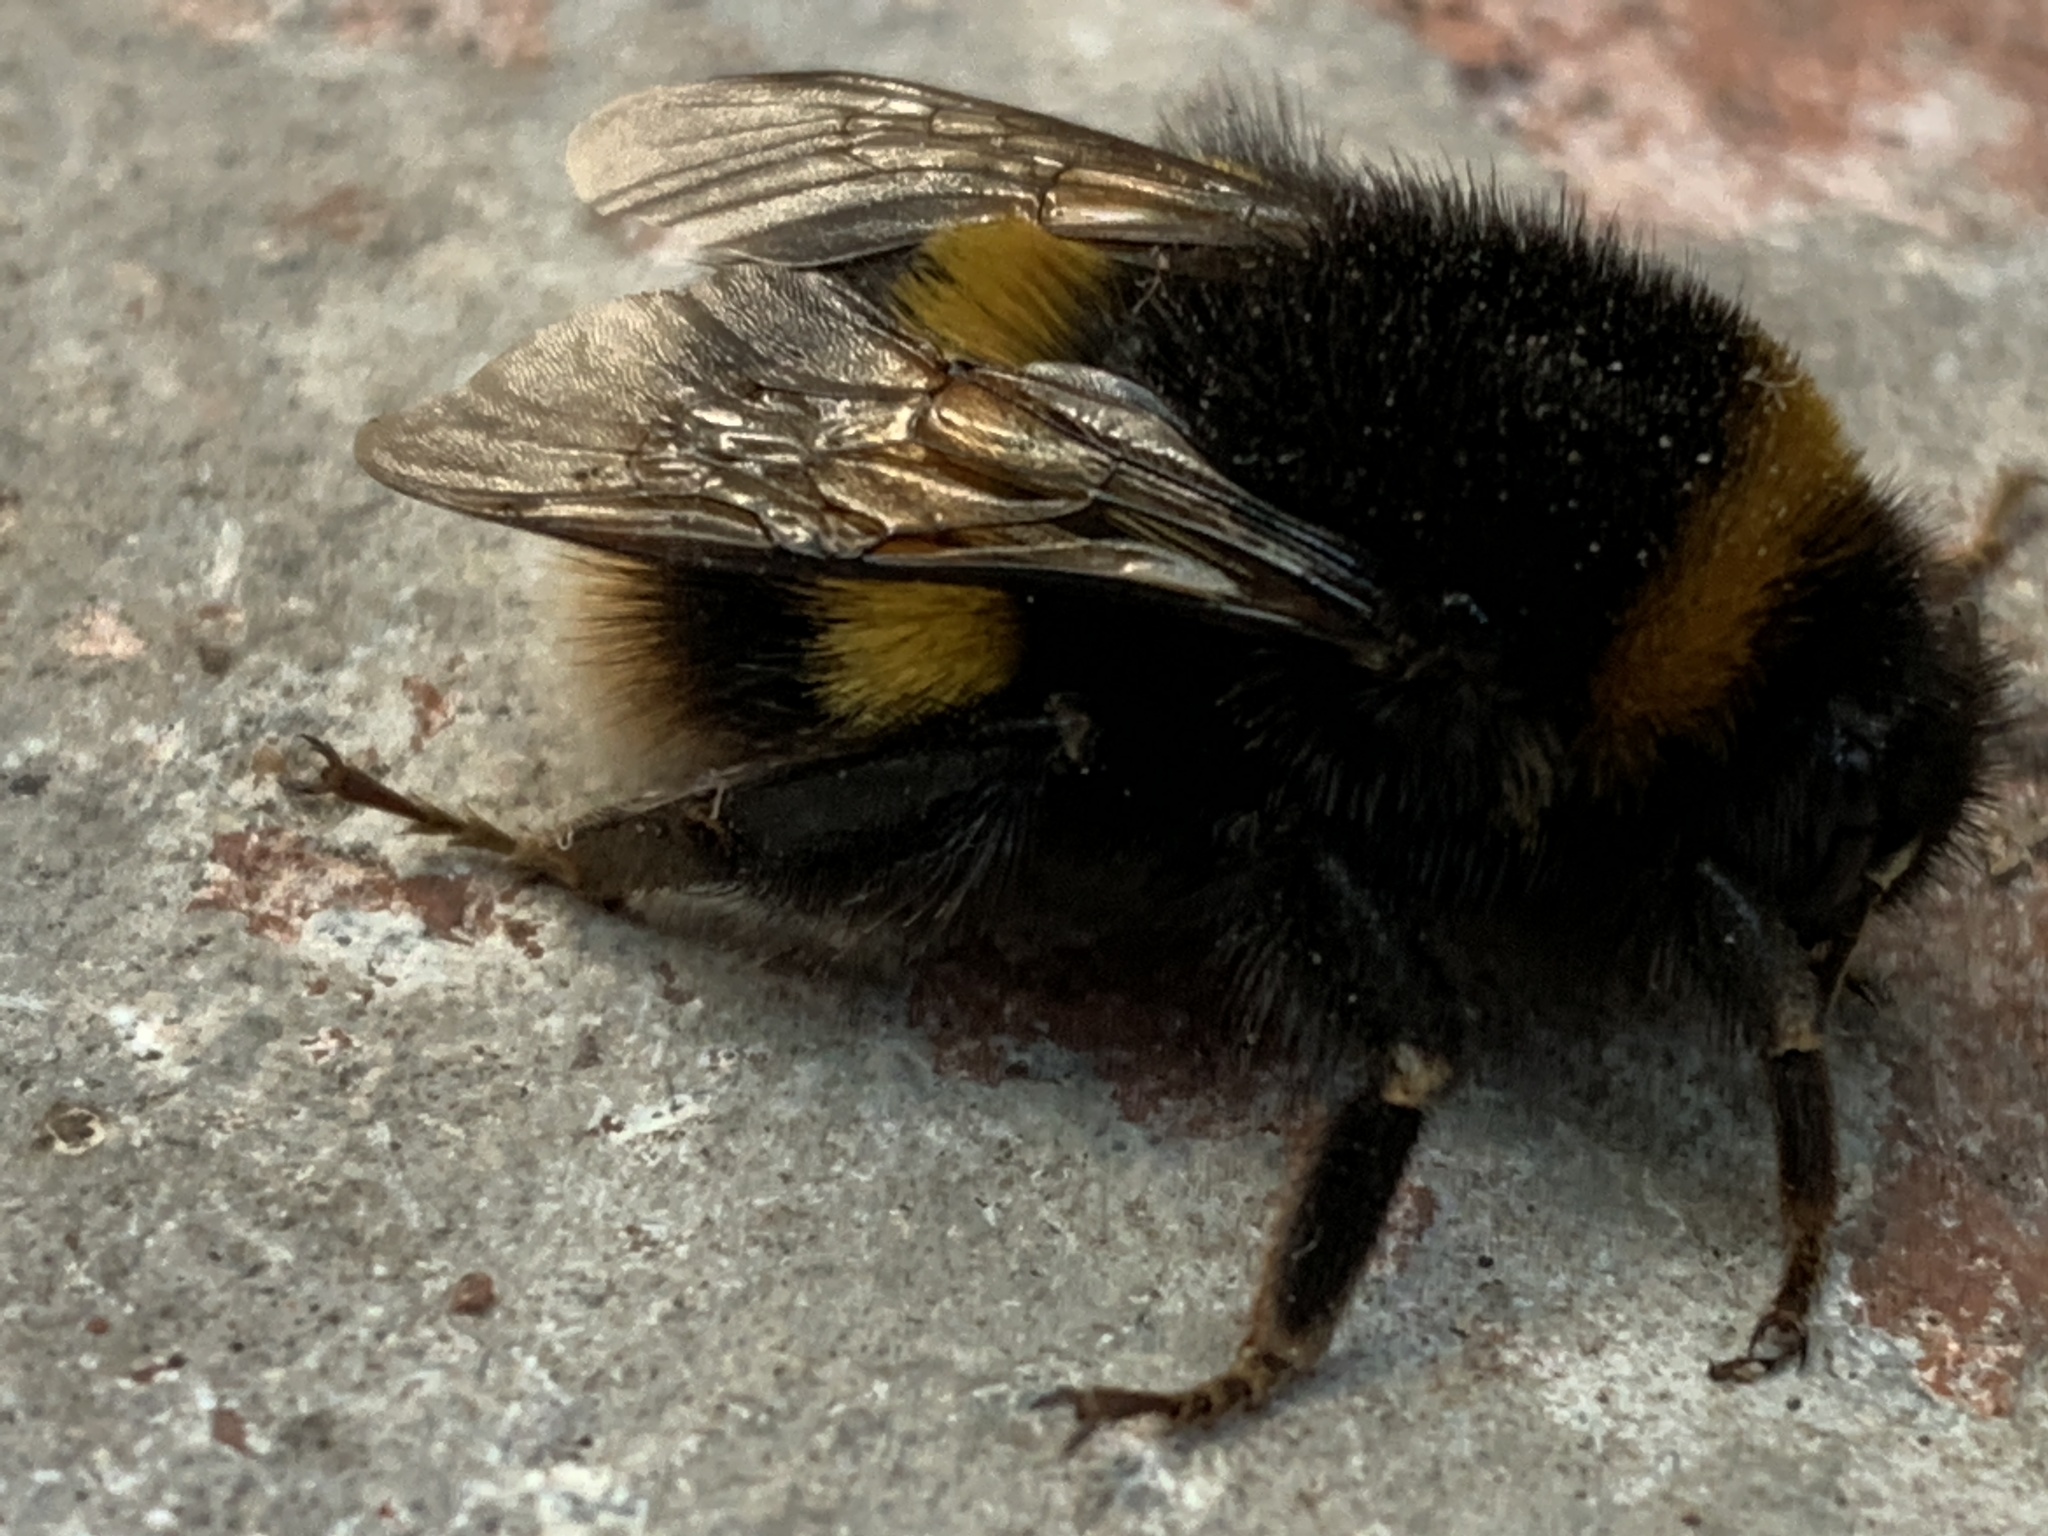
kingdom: Animalia
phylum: Arthropoda
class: Insecta
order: Hymenoptera
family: Apidae
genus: Bombus
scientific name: Bombus terrestris
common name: Buff-tailed bumblebee
